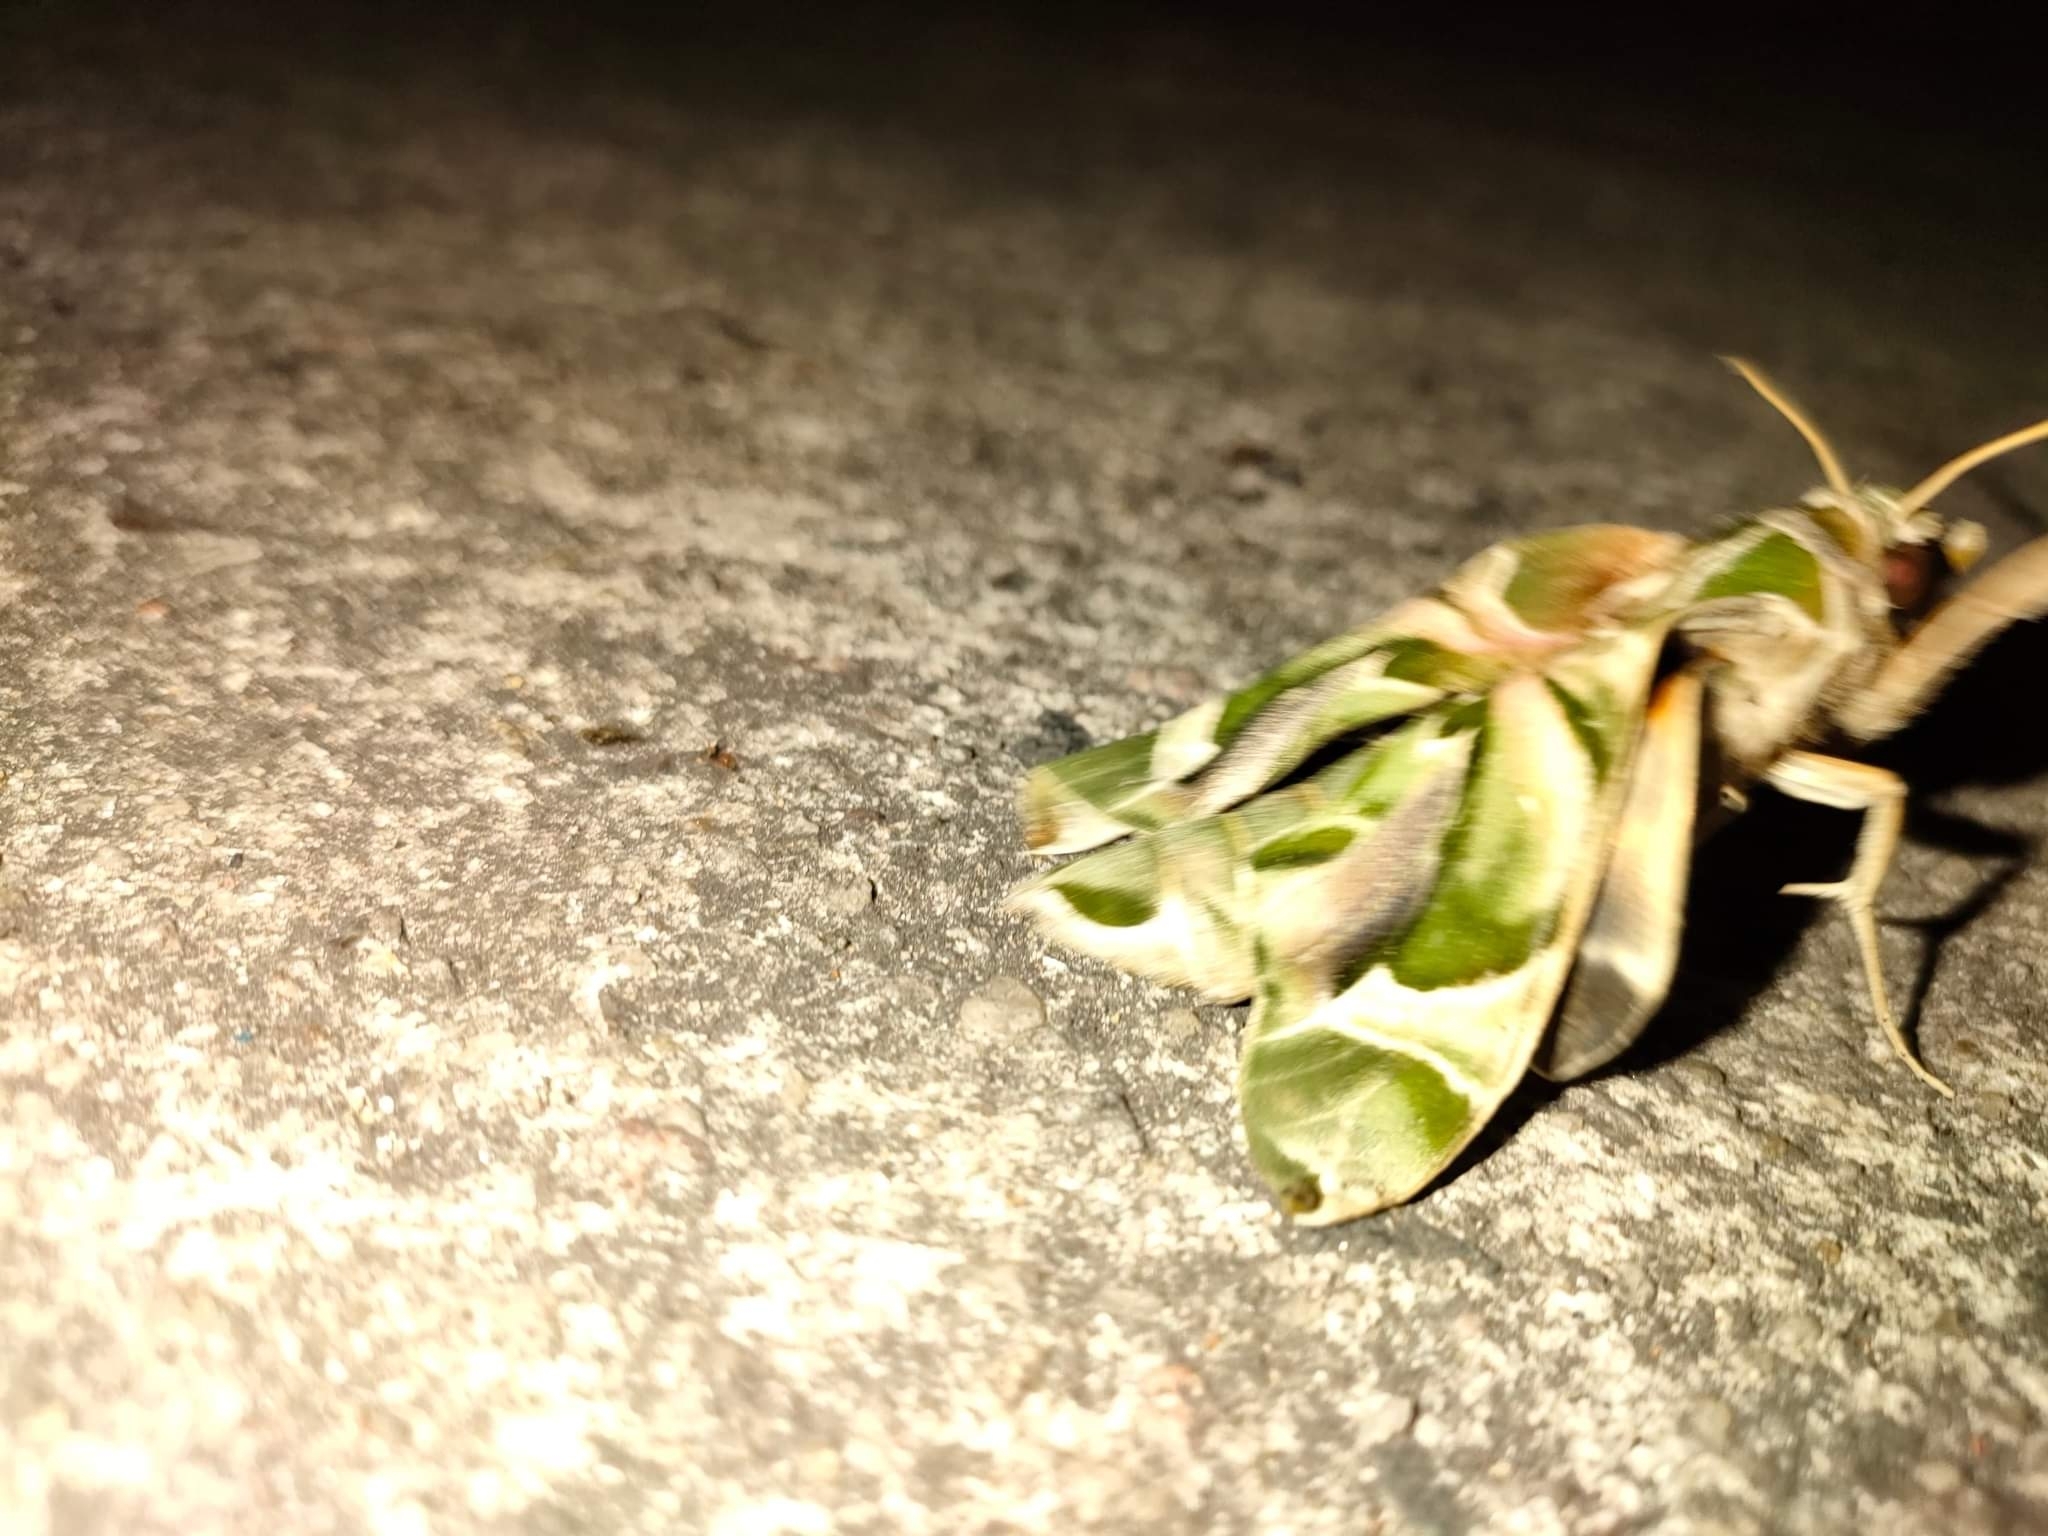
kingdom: Animalia
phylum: Arthropoda
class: Insecta
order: Lepidoptera
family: Sphingidae
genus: Daphnis
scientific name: Daphnis nerii
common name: Oleander hawk-moth
